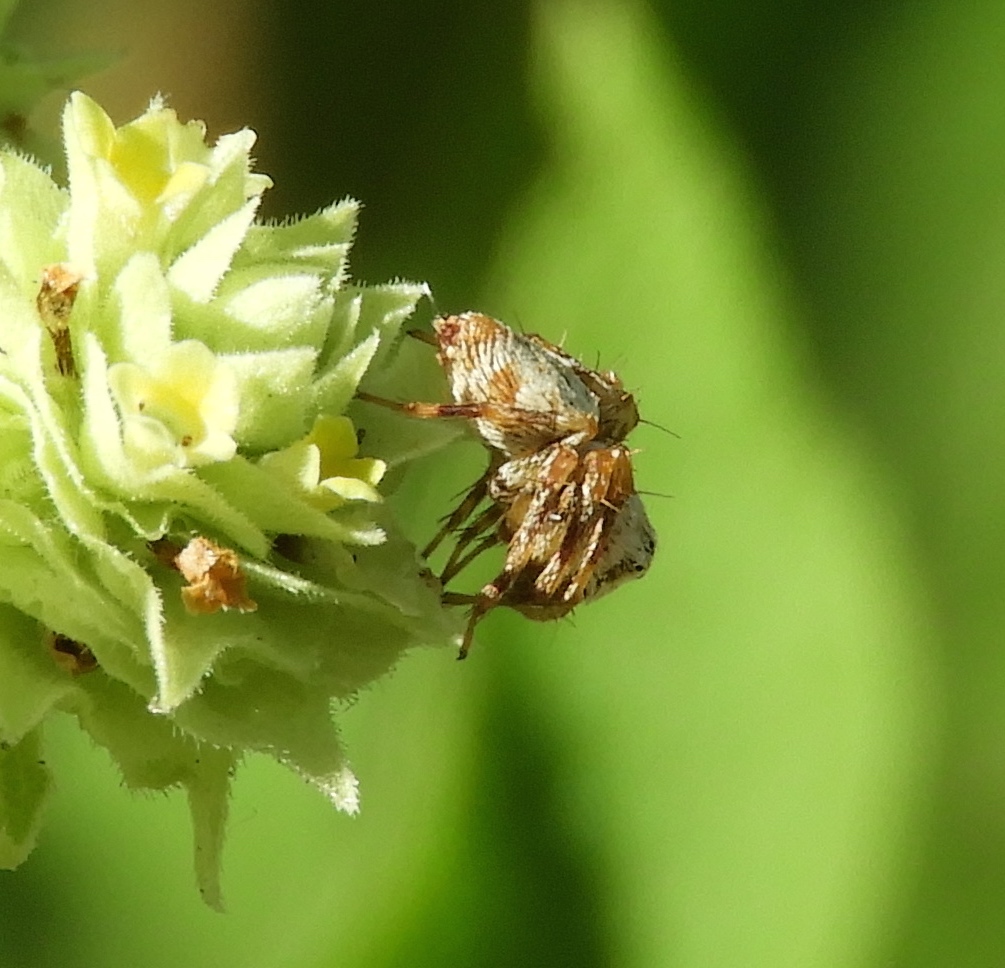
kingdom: Animalia
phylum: Arthropoda
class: Arachnida
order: Araneae
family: Oxyopidae
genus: Hamataliwa
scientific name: Hamataliwa
